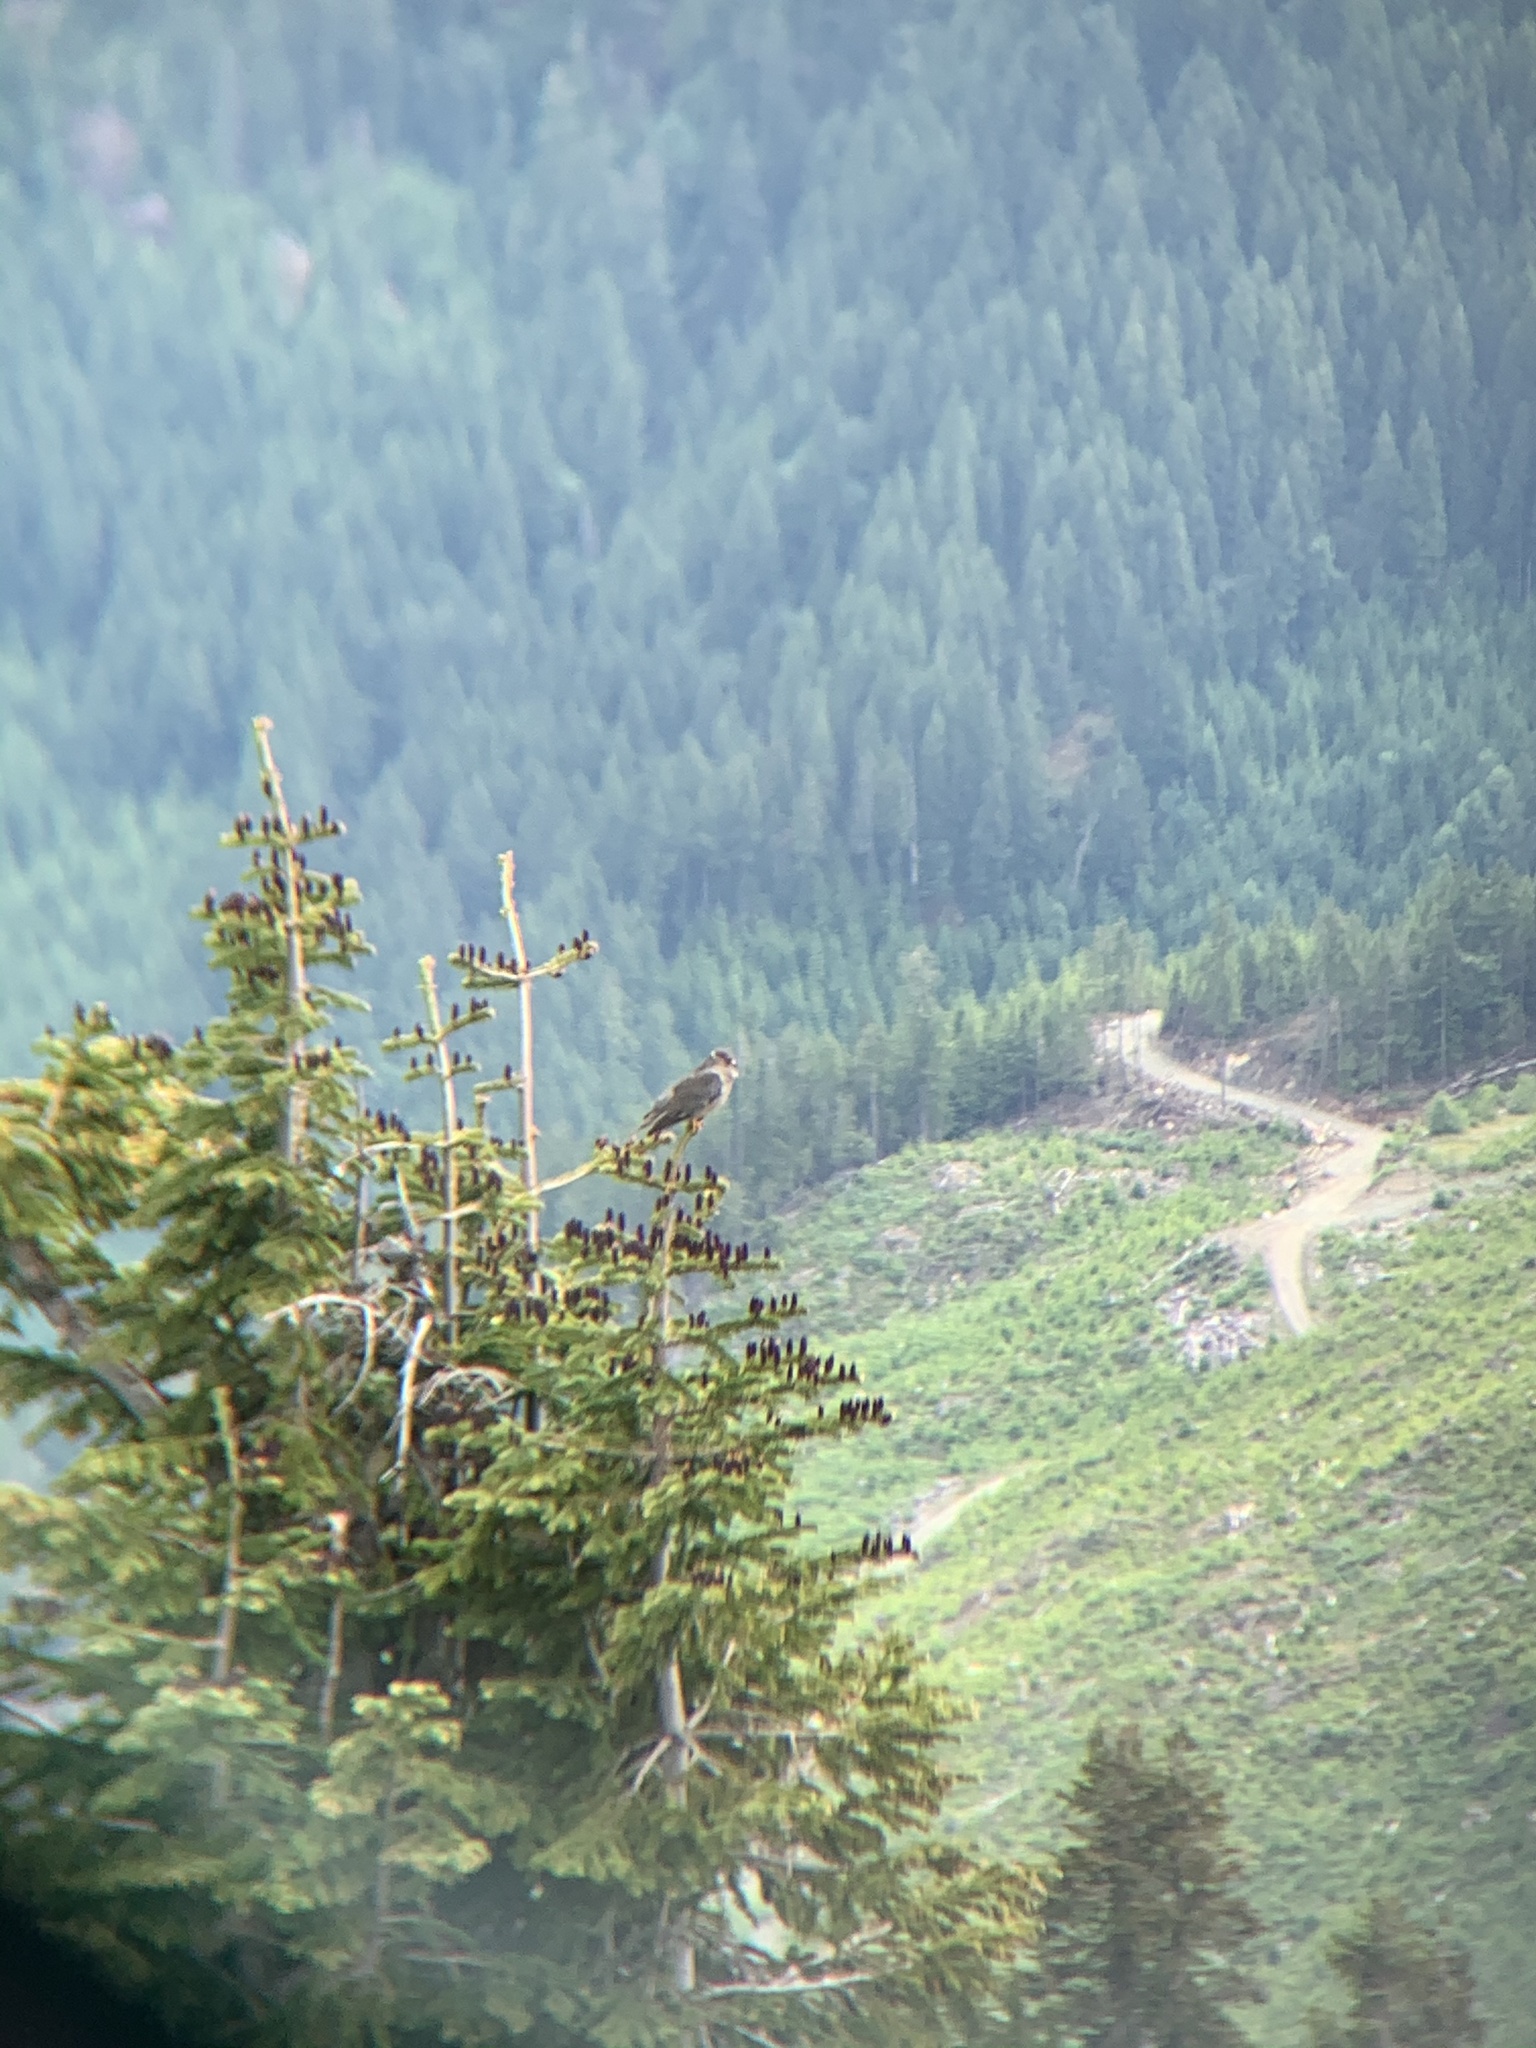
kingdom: Animalia
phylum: Chordata
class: Aves
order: Columbiformes
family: Columbidae
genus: Patagioenas
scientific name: Patagioenas fasciata
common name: Band-tailed pigeon
